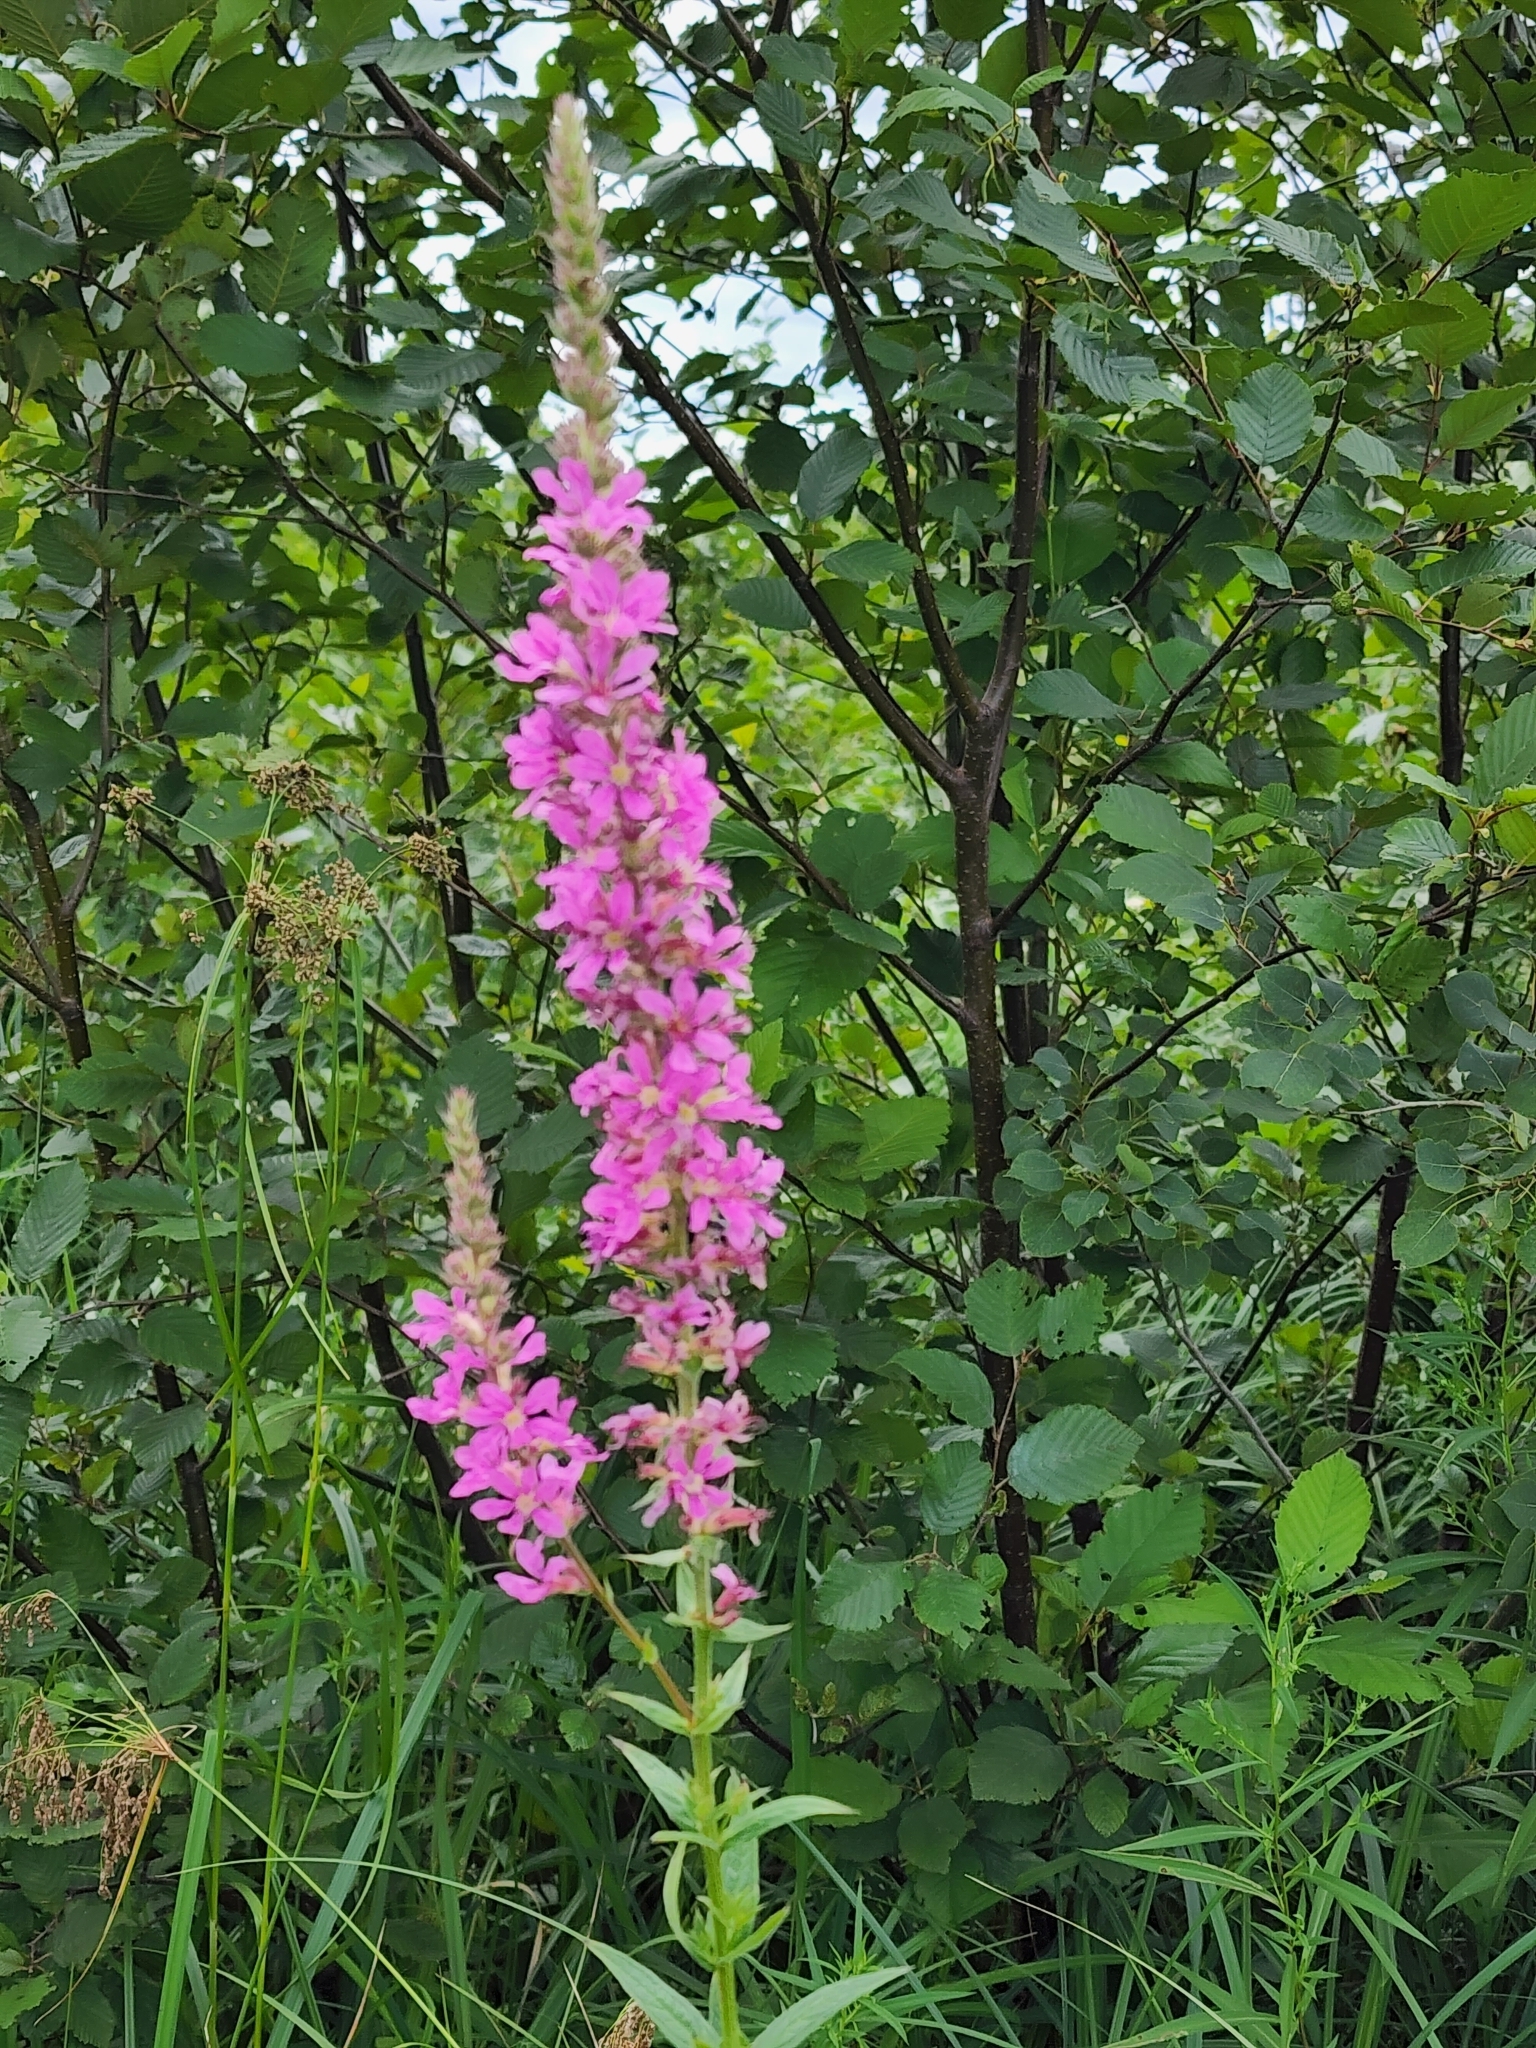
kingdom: Plantae
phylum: Tracheophyta
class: Magnoliopsida
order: Myrtales
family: Lythraceae
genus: Lythrum
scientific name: Lythrum salicaria
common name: Purple loosestrife
